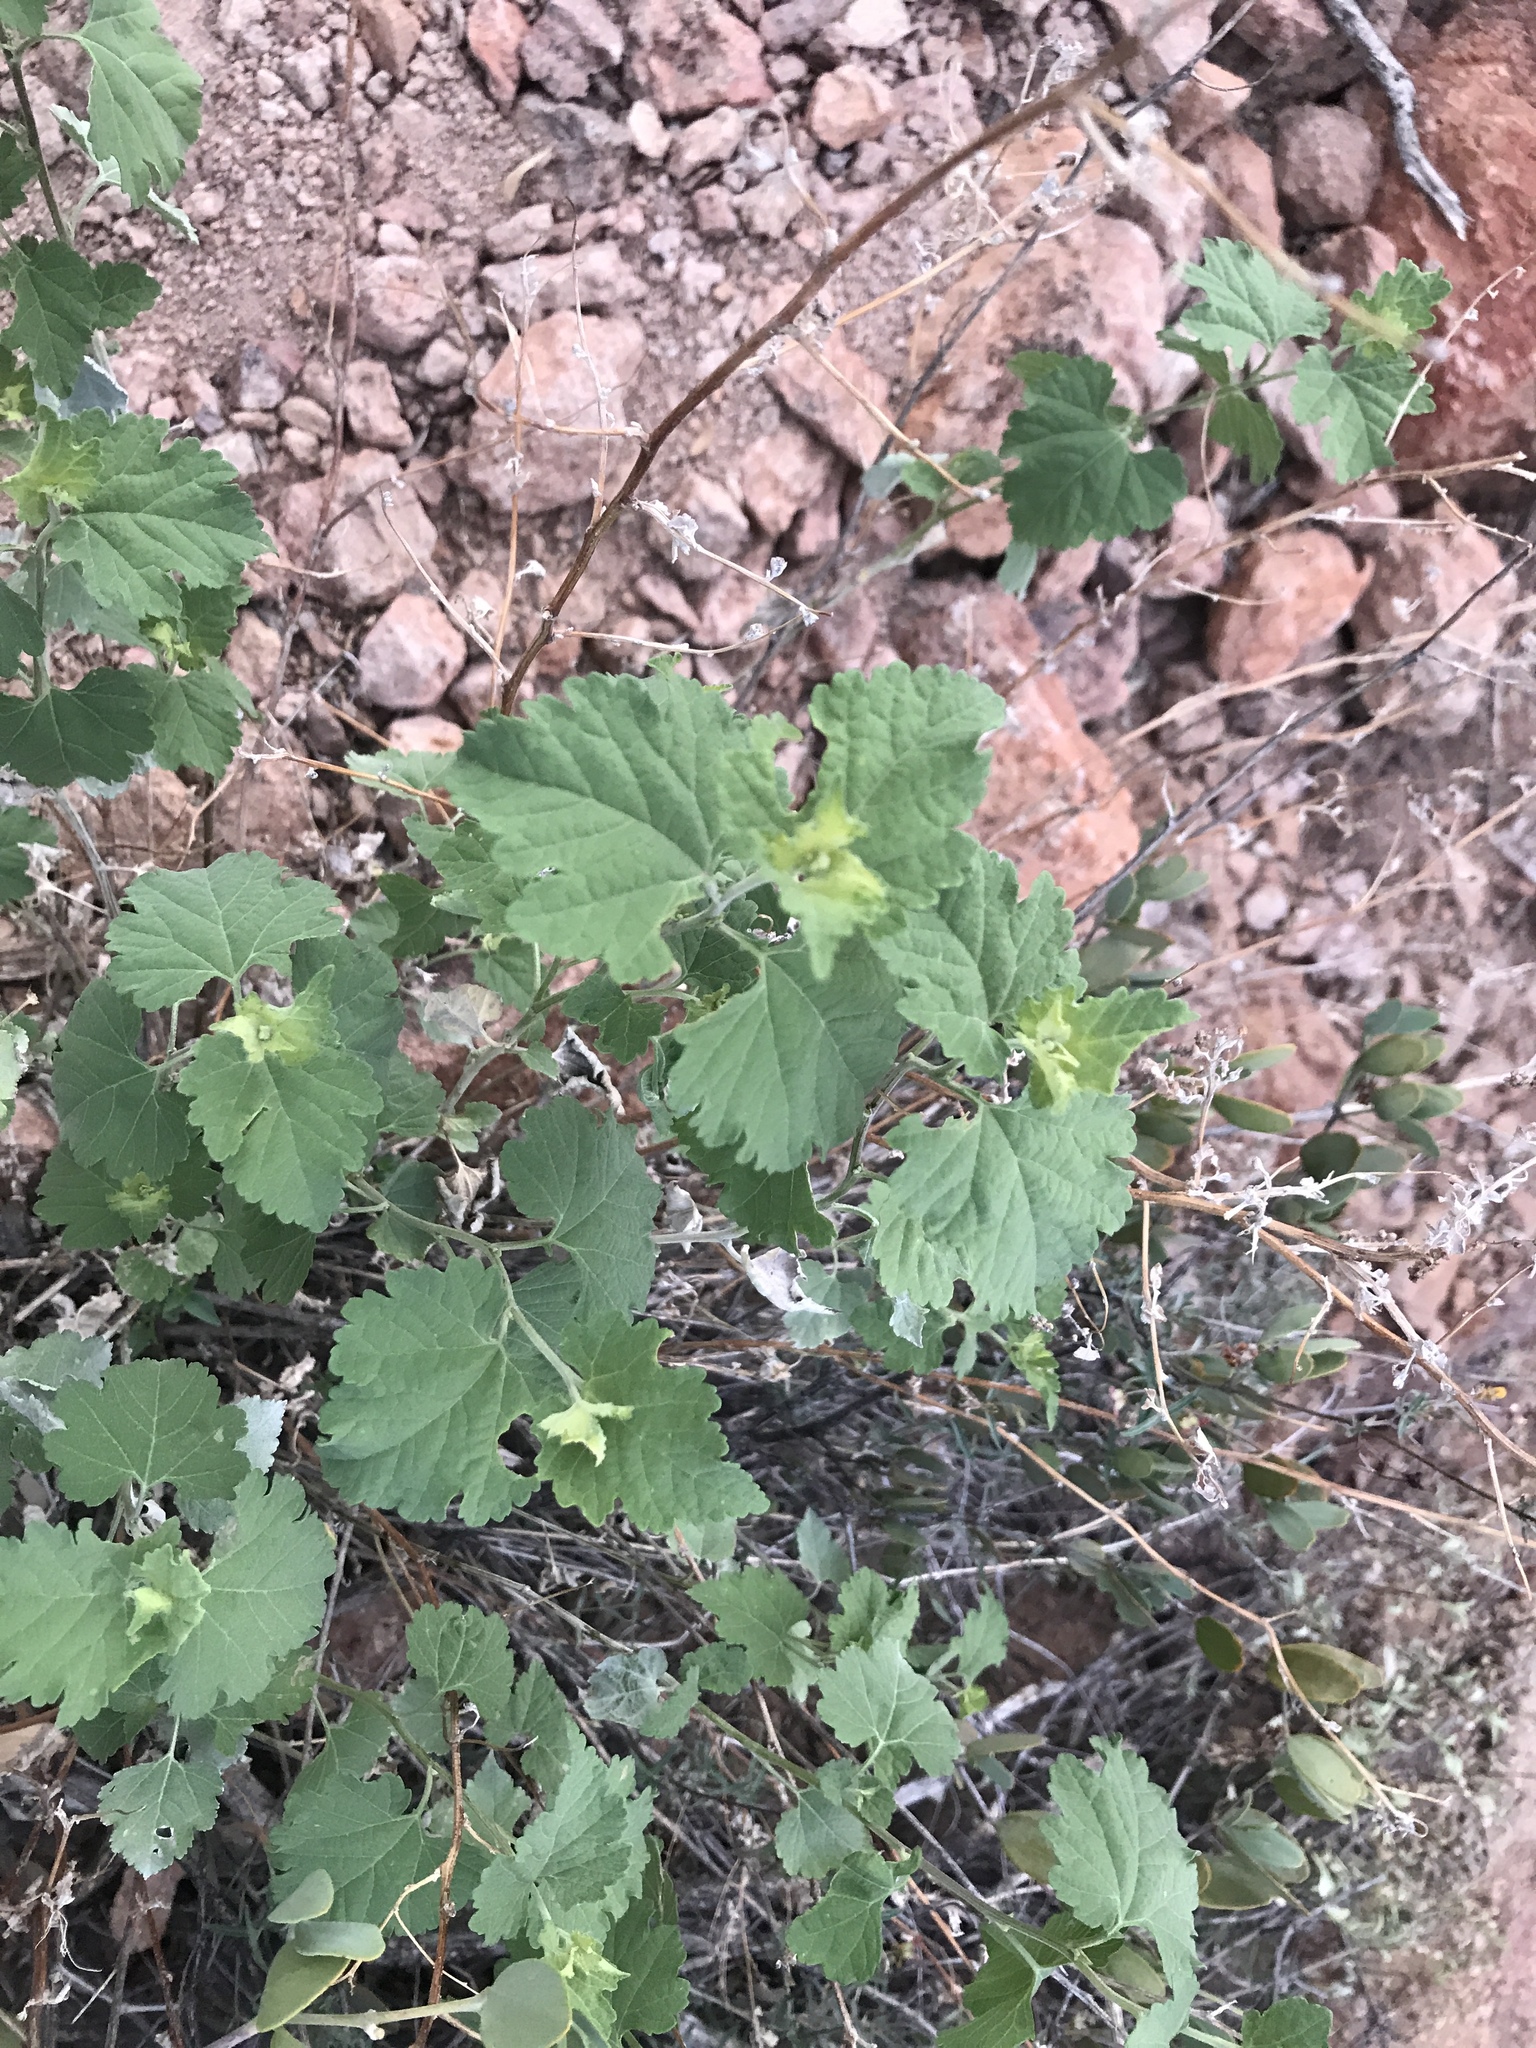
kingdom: Plantae
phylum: Tracheophyta
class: Magnoliopsida
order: Asterales
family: Asteraceae
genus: Ambrosia
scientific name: Ambrosia cordifolia
